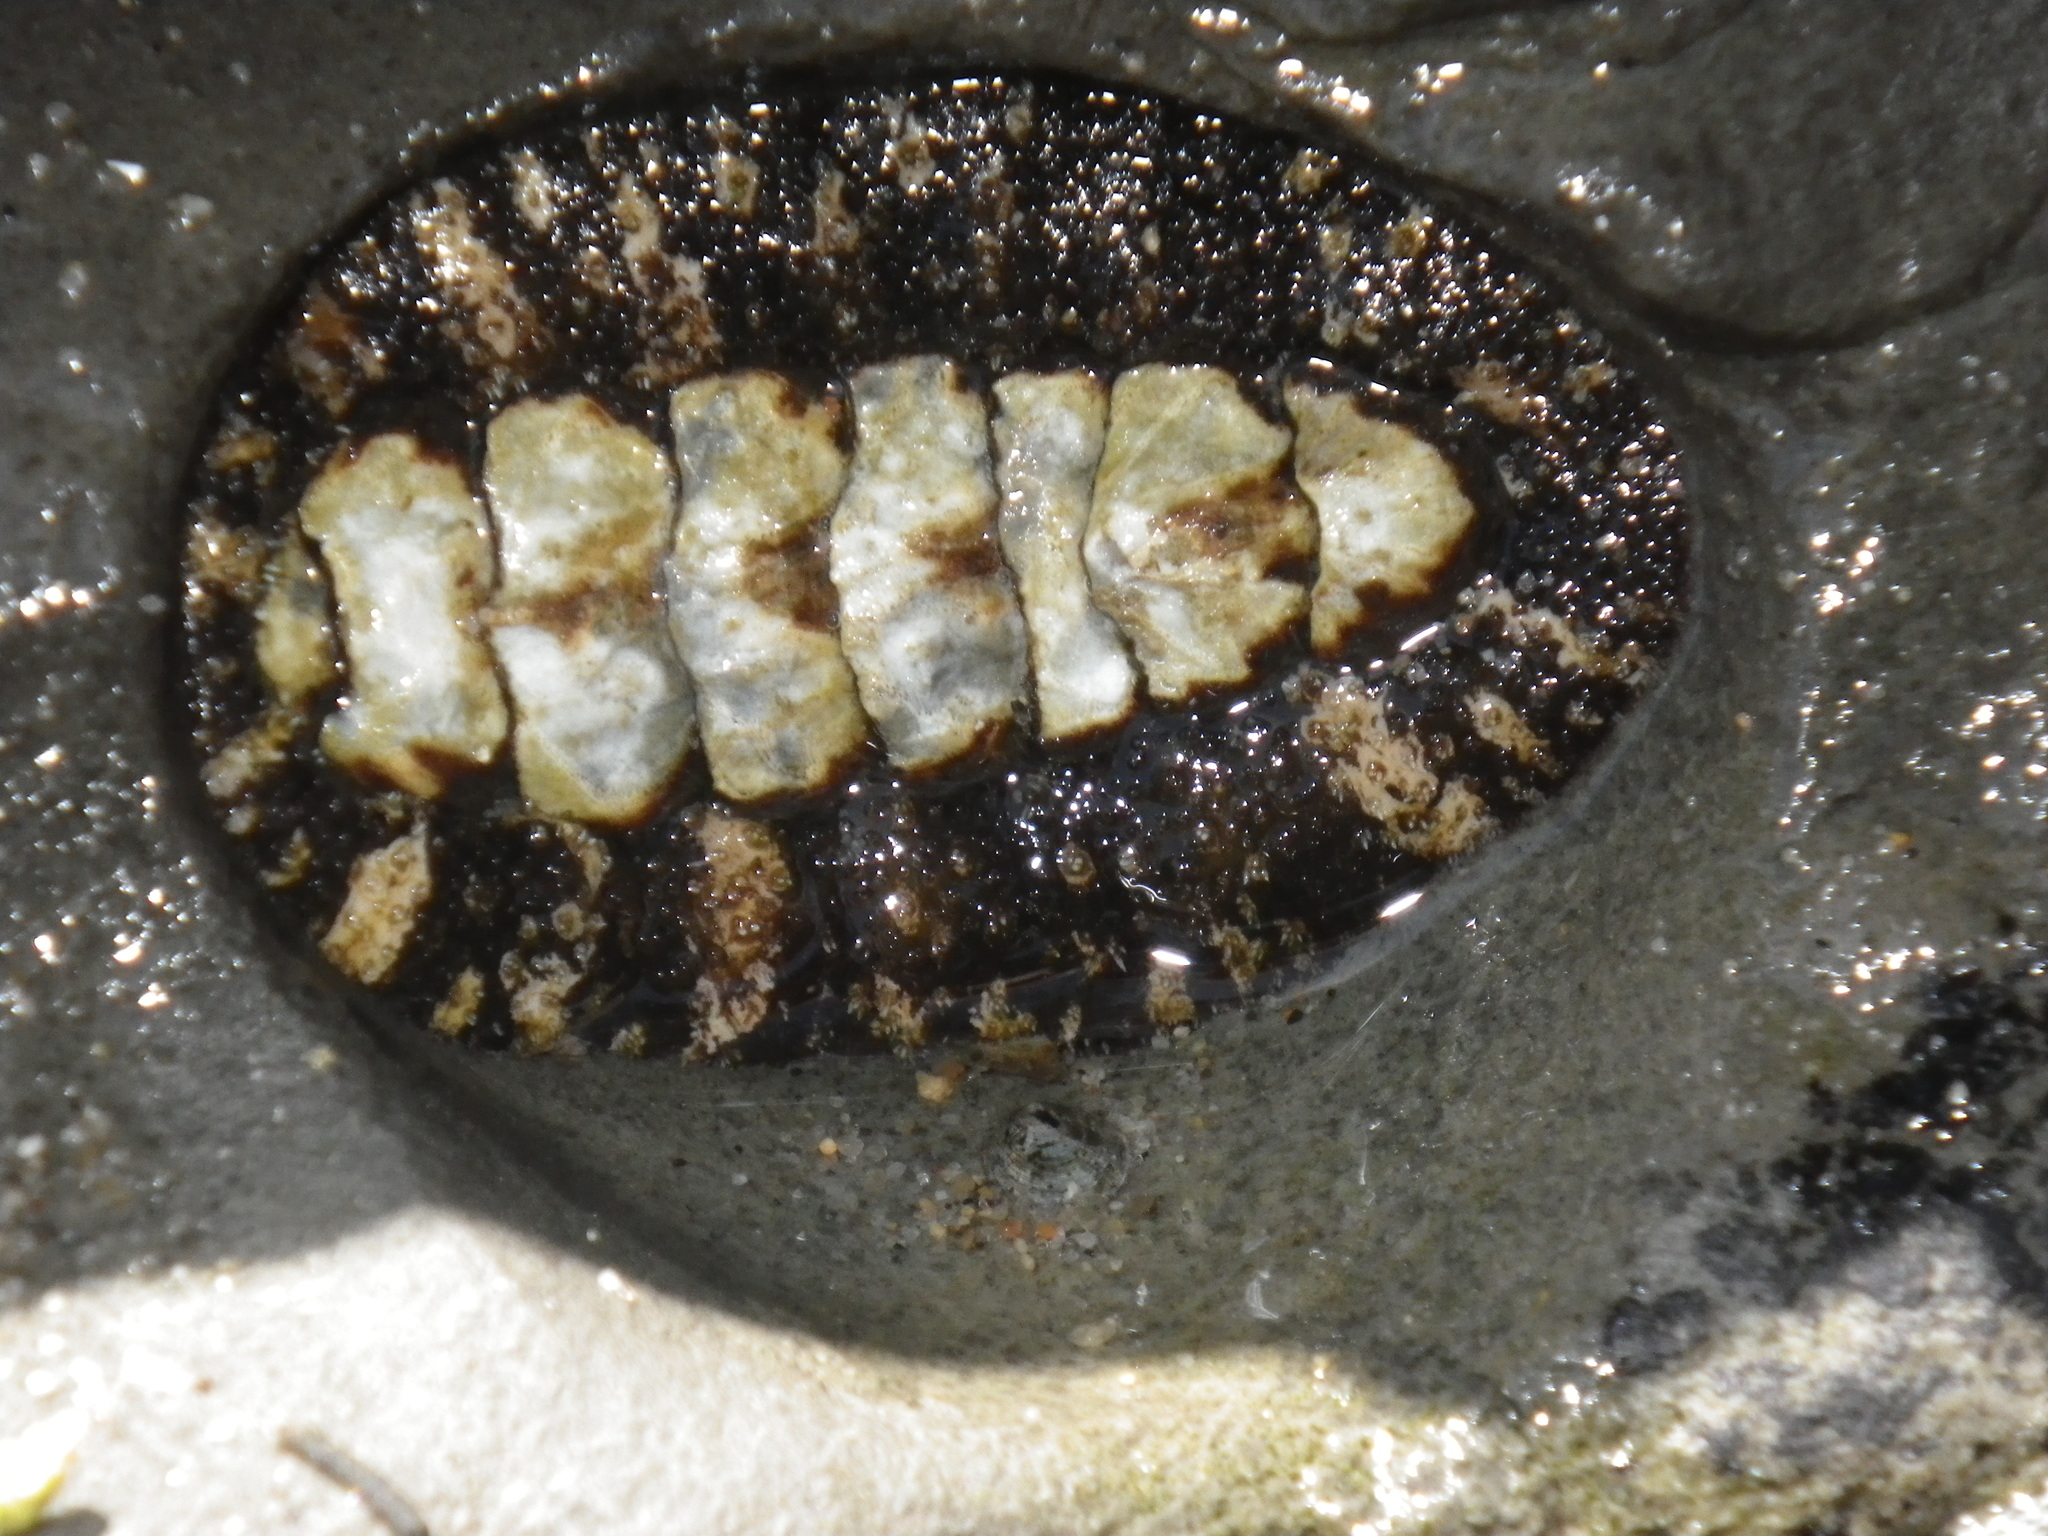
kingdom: Animalia
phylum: Mollusca
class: Polyplacophora
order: Chitonida
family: Tonicellidae
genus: Nuttallina
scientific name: Nuttallina californica
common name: California nuttall chiton
